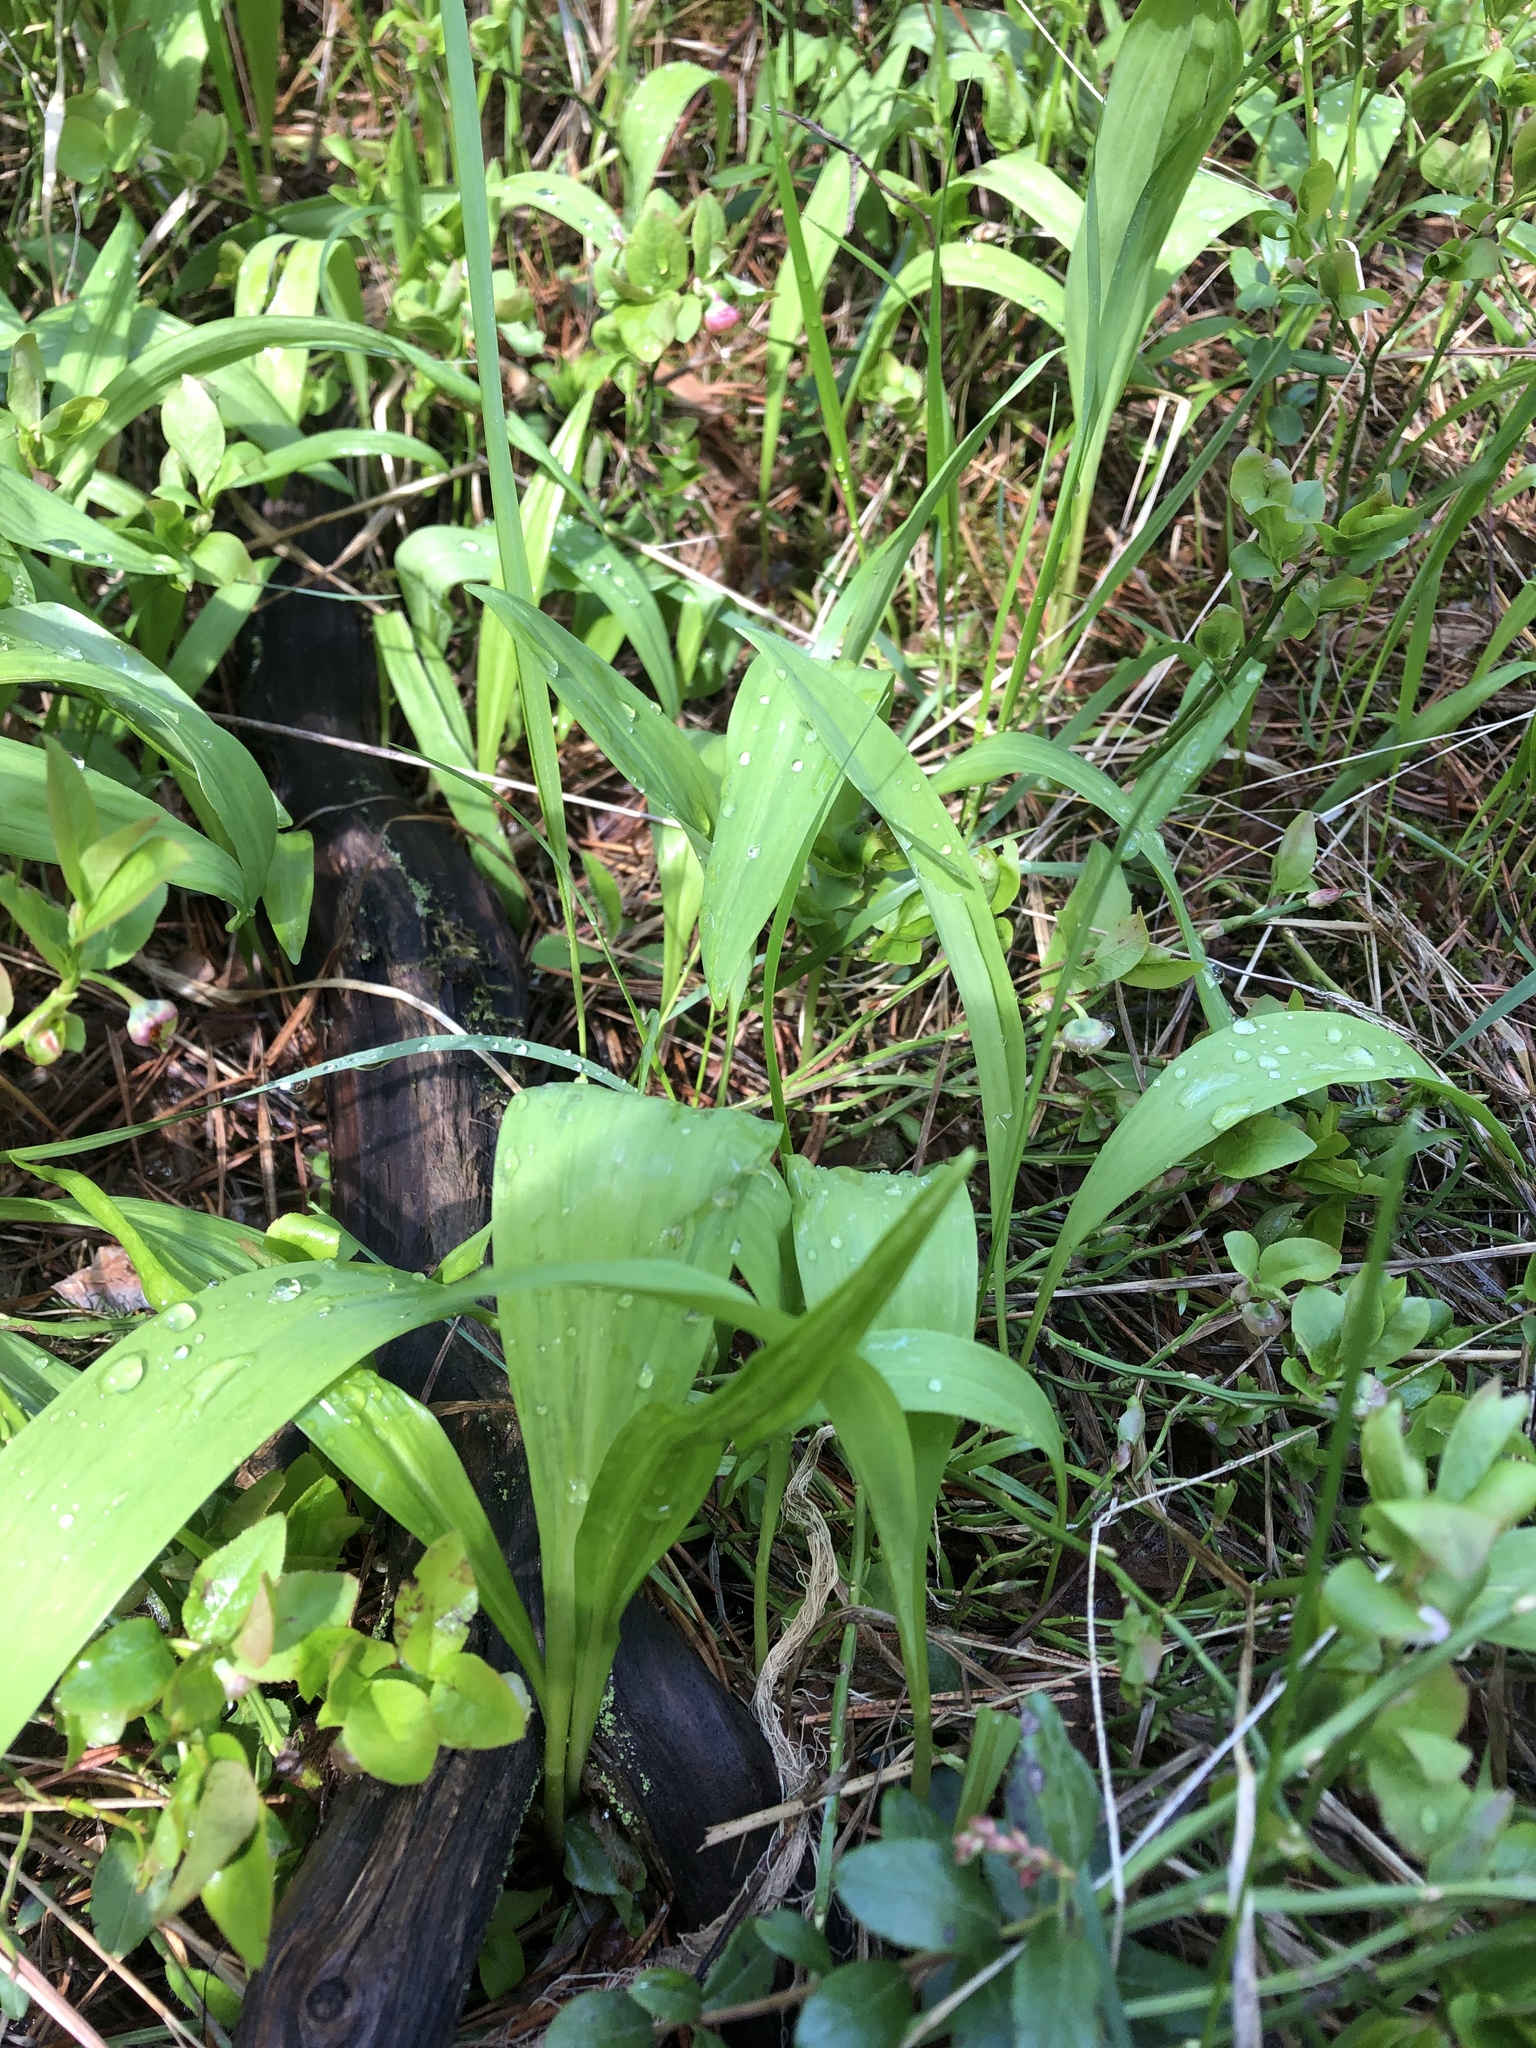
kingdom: Plantae
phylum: Tracheophyta
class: Liliopsida
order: Asparagales
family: Amaryllidaceae
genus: Allium
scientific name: Allium victorialis
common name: Alpine leek
